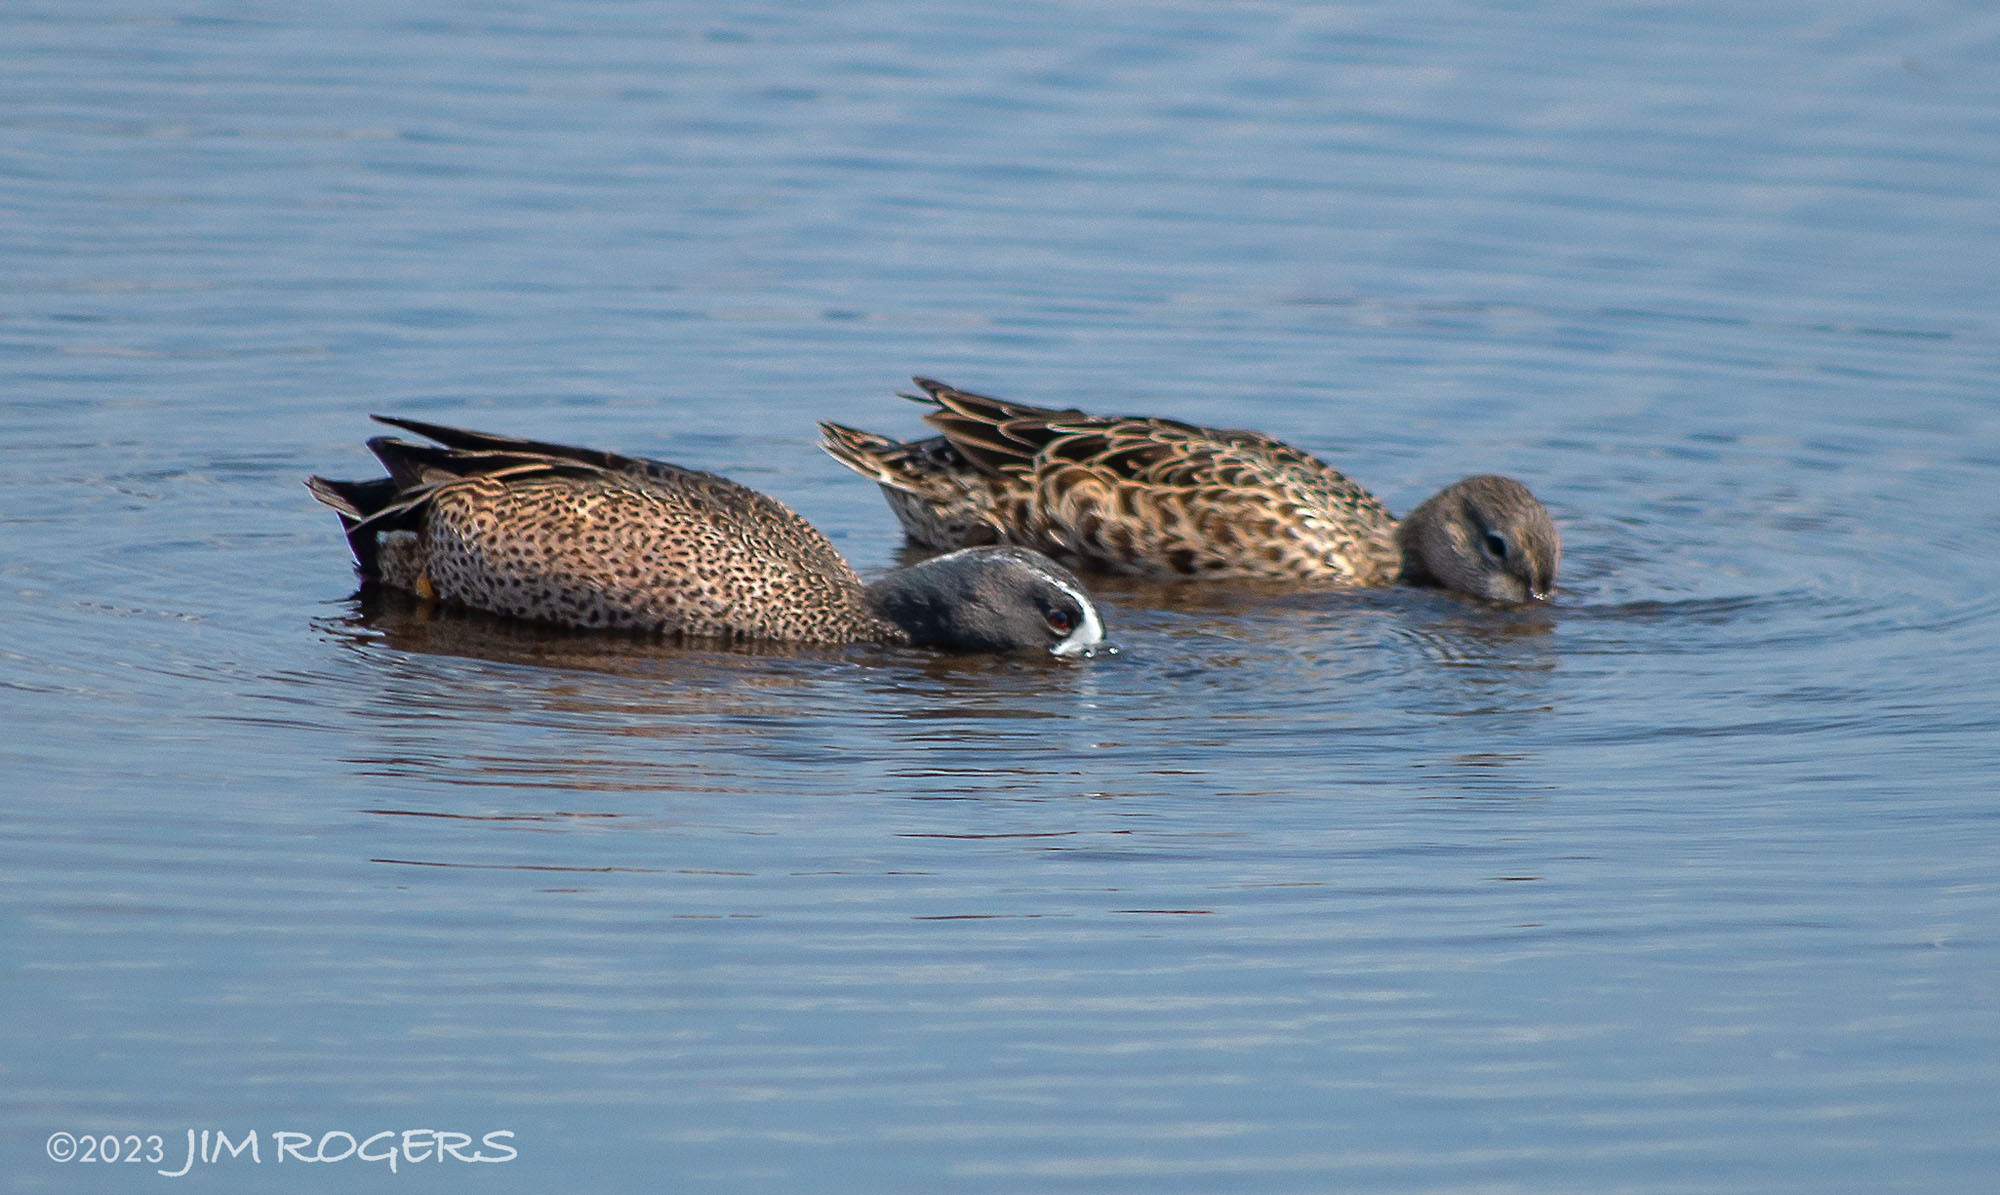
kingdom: Animalia
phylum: Chordata
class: Aves
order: Anseriformes
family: Anatidae
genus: Spatula
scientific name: Spatula discors
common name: Blue-winged teal
